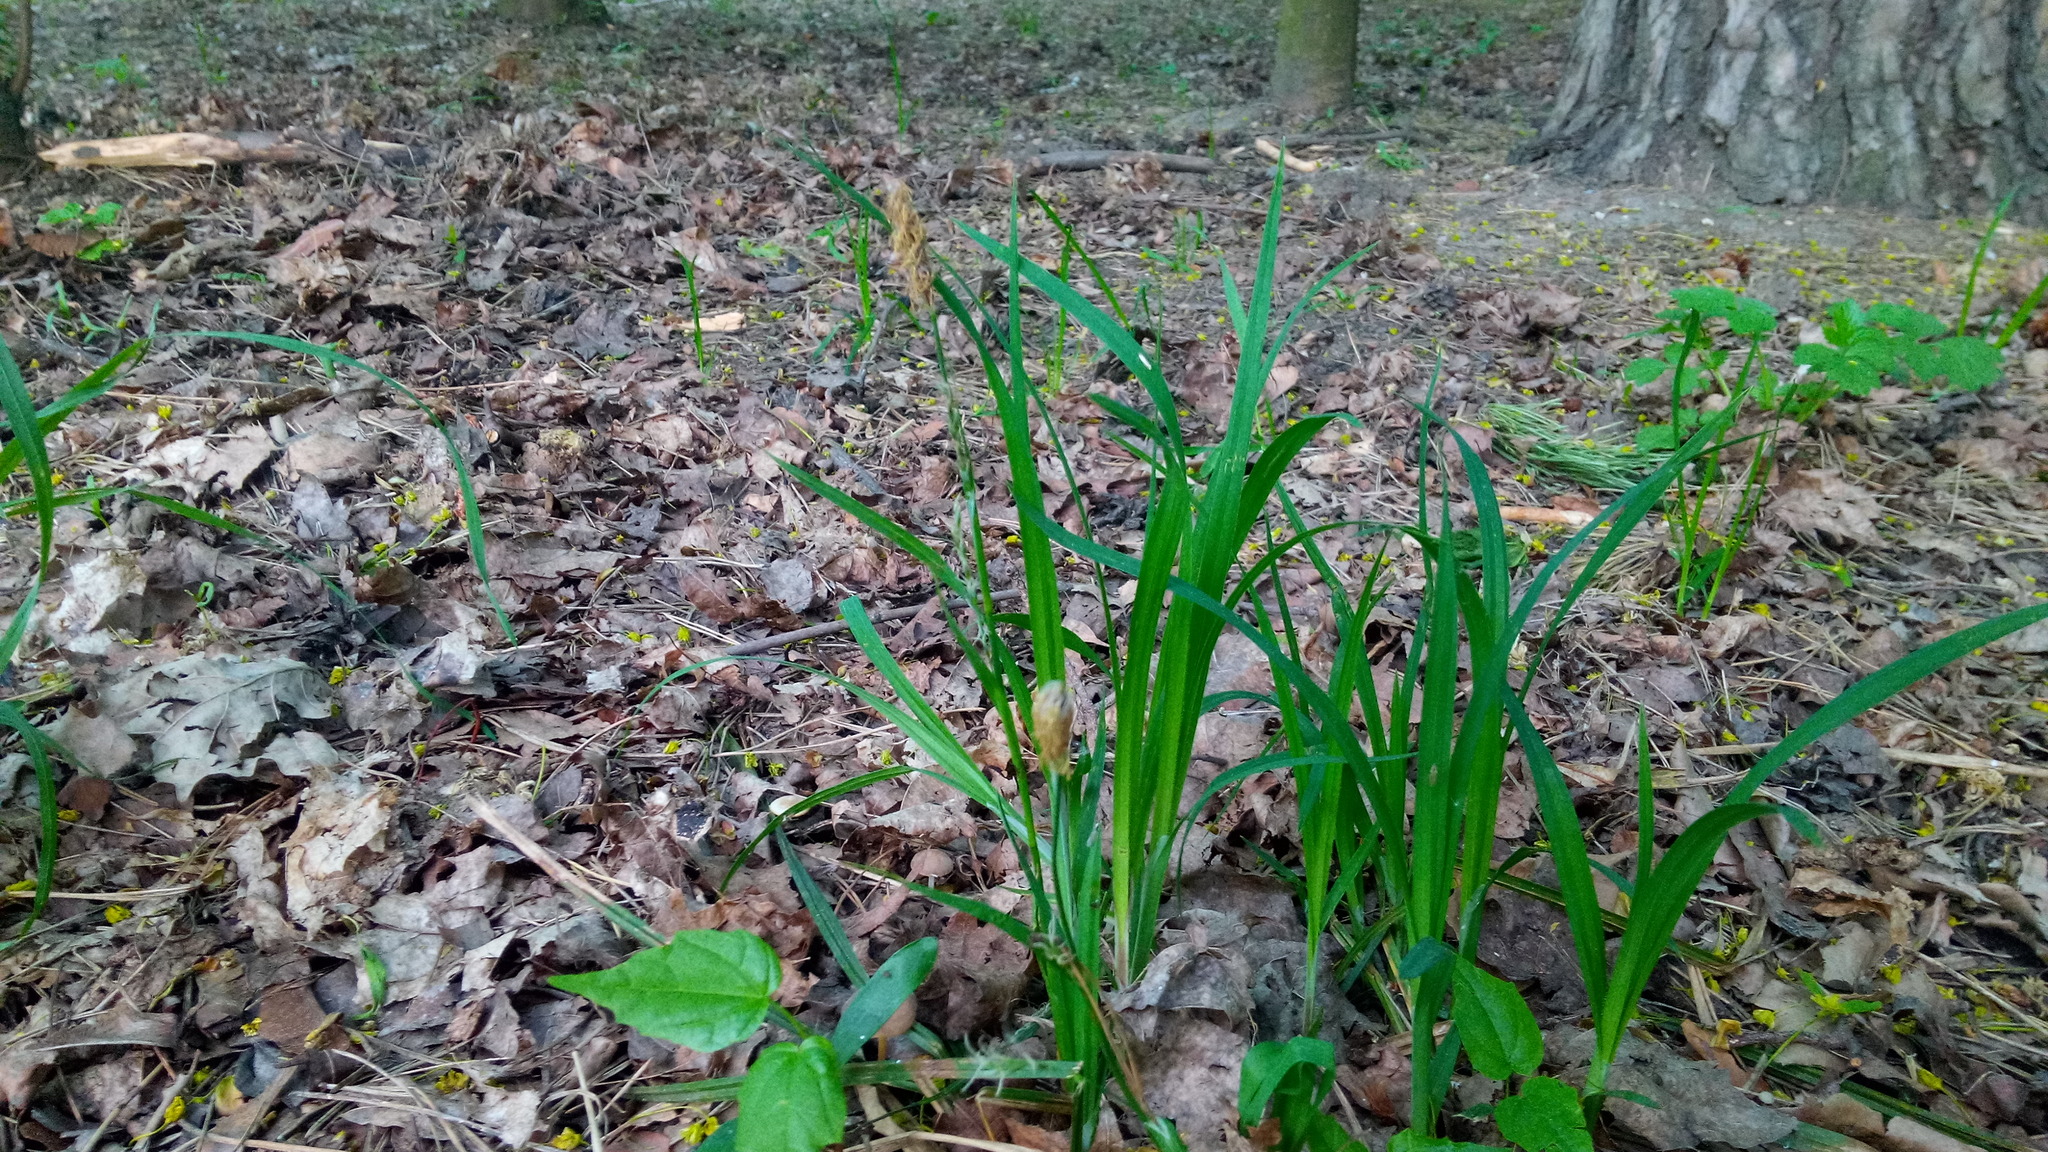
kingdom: Plantae
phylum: Tracheophyta
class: Liliopsida
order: Poales
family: Cyperaceae
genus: Carex
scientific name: Carex pilosa
